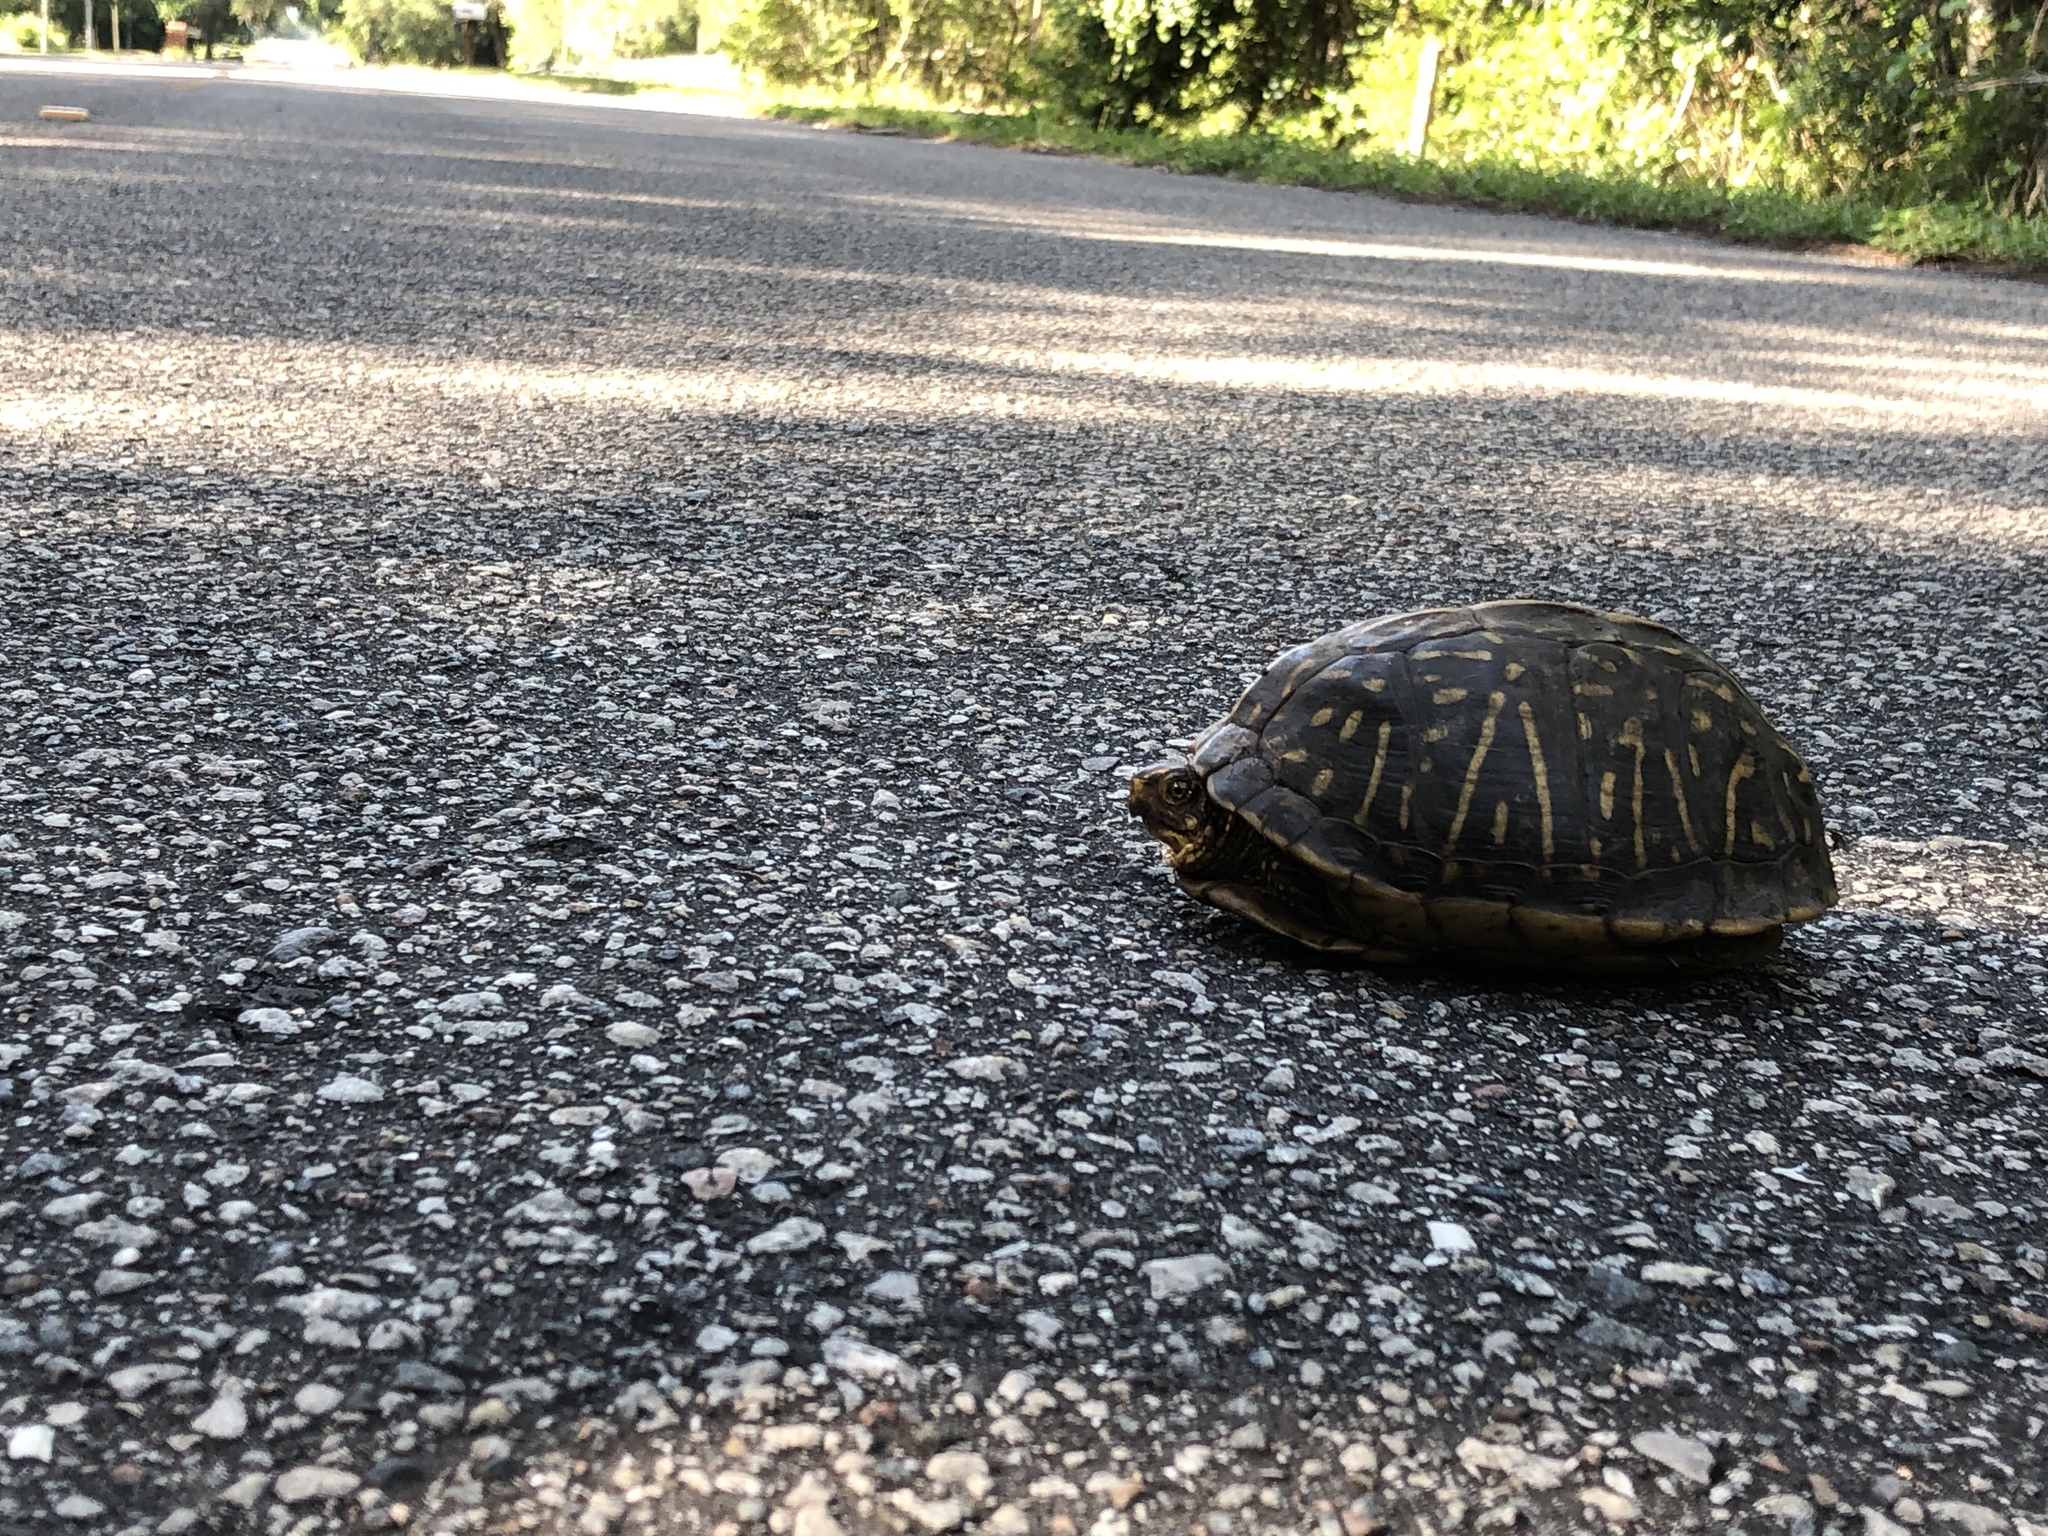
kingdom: Animalia
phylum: Chordata
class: Testudines
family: Emydidae
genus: Terrapene
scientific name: Terrapene carolina
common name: Common box turtle
